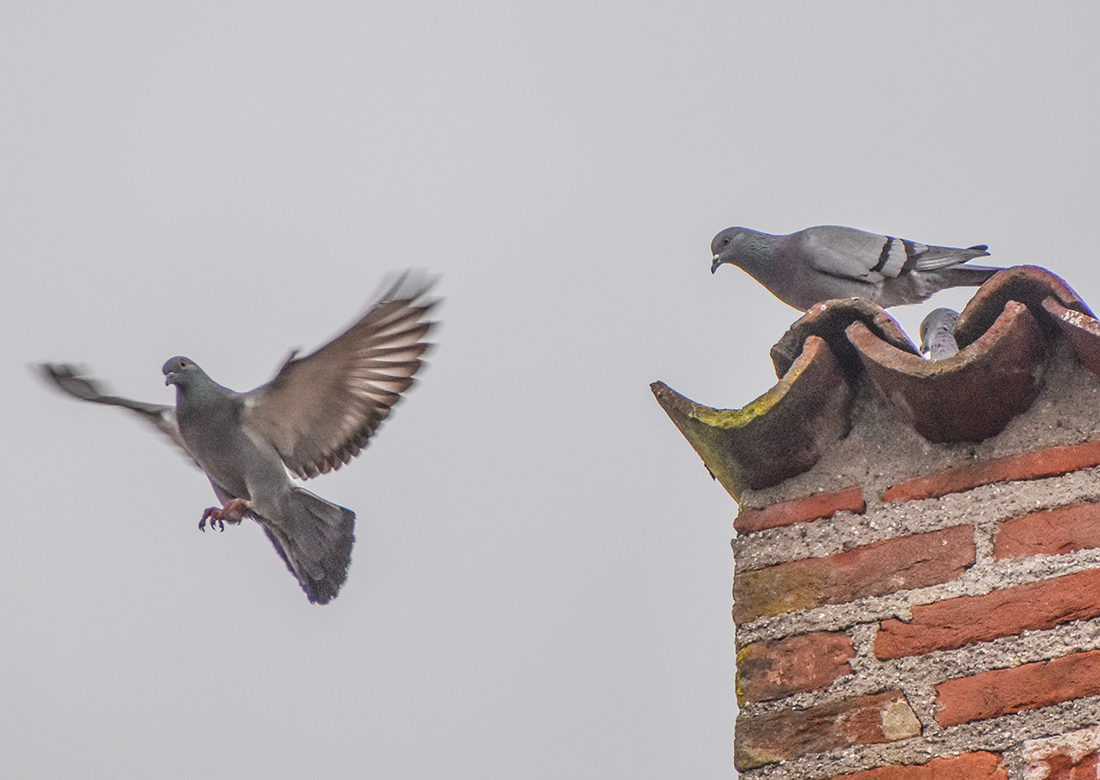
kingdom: Animalia
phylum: Chordata
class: Aves
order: Columbiformes
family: Columbidae
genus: Columba
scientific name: Columba livia
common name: Rock pigeon
